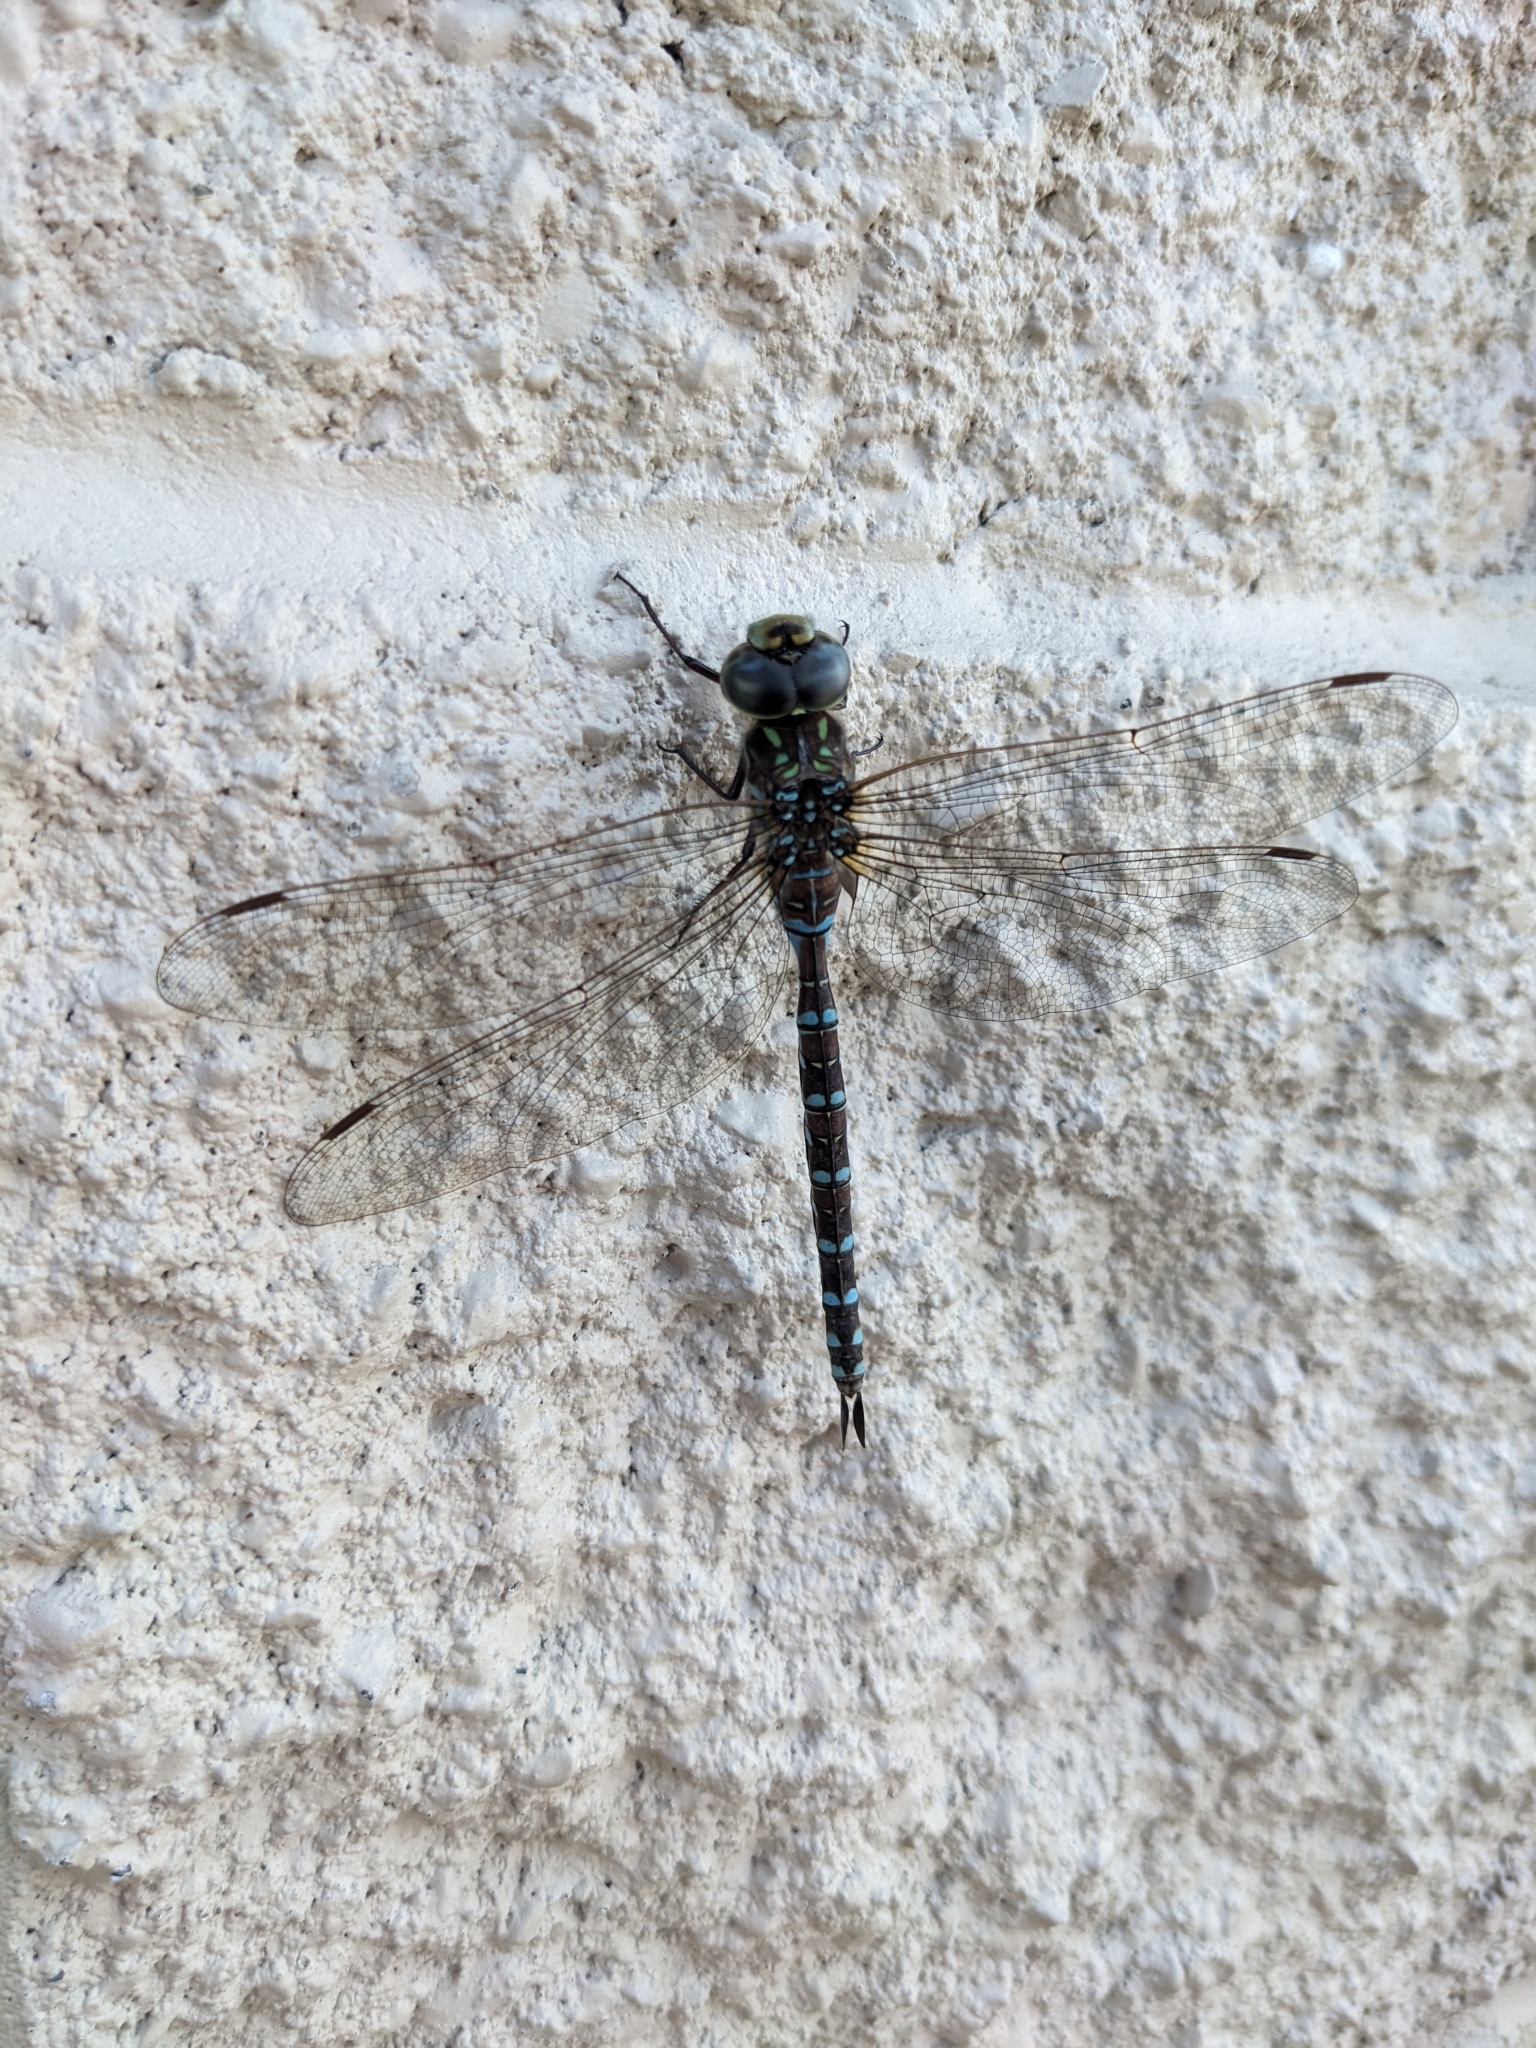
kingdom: Animalia
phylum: Arthropoda
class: Insecta
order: Odonata
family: Aeshnidae
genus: Aeshna
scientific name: Aeshna canadensis
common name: Canada darner
